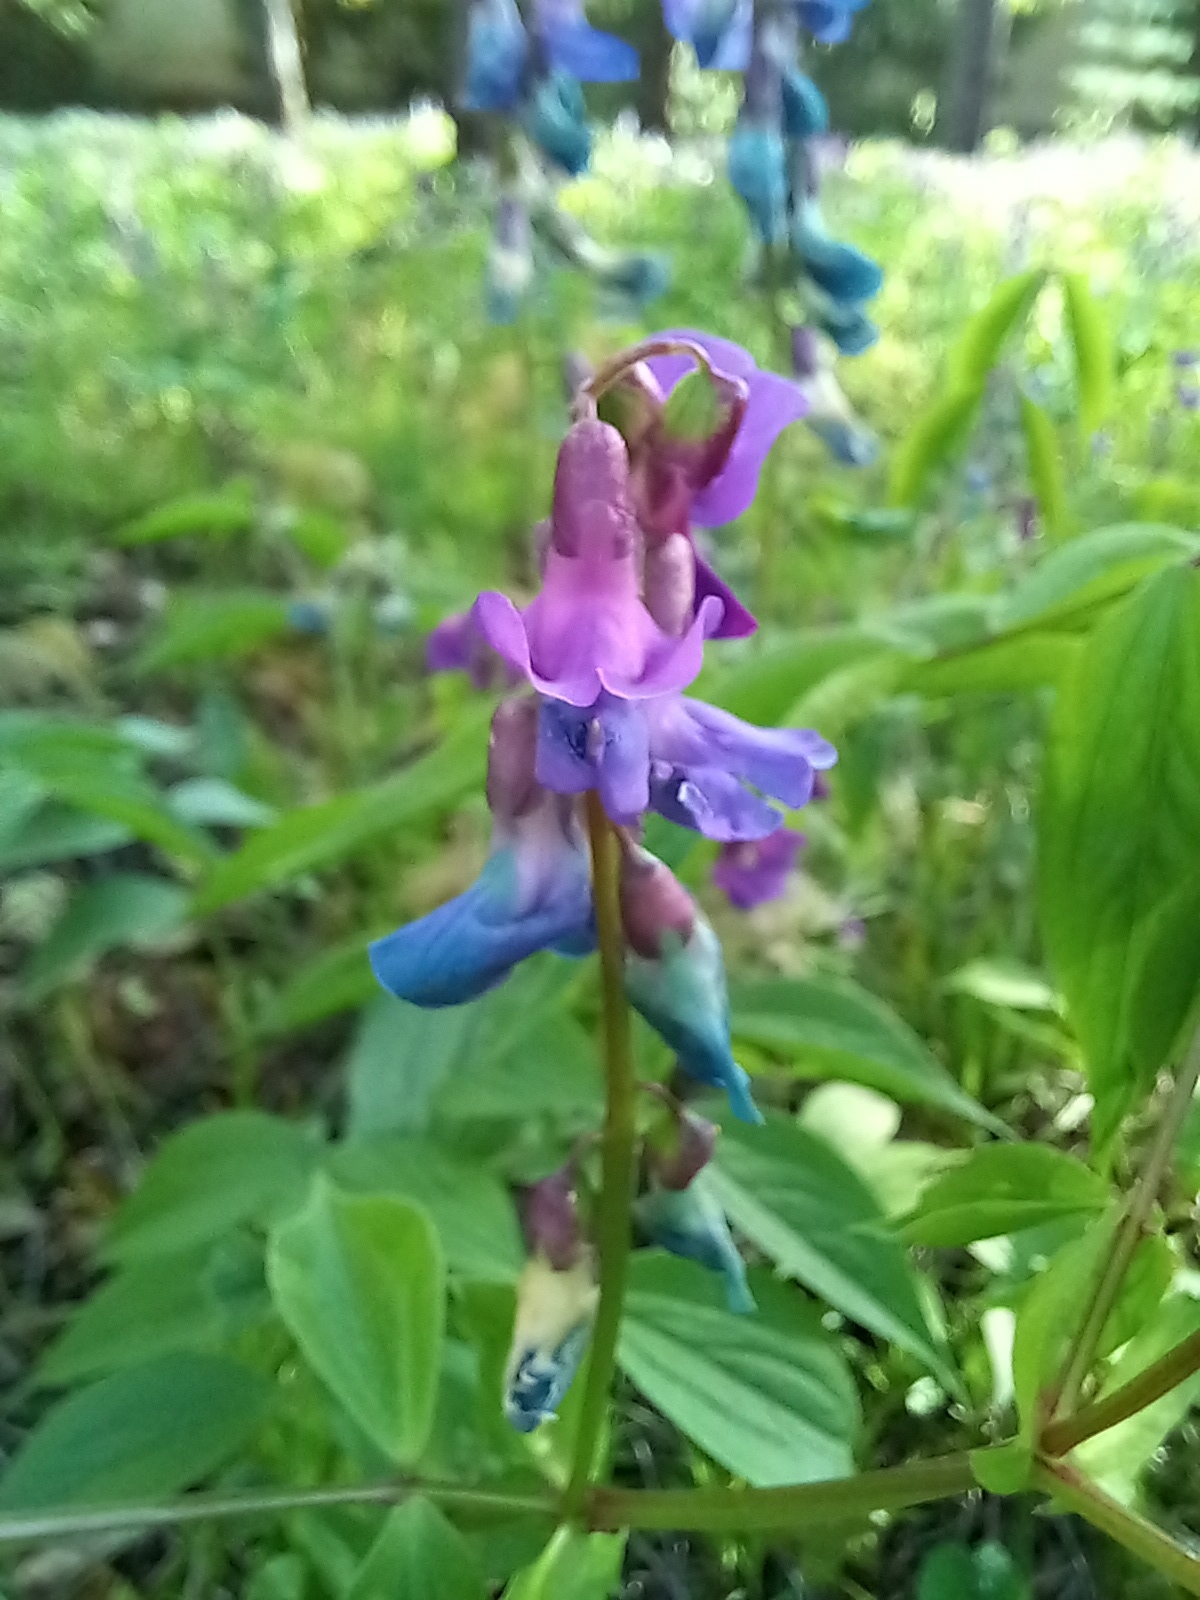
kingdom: Plantae
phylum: Tracheophyta
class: Magnoliopsida
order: Fabales
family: Fabaceae
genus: Lathyrus
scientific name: Lathyrus vernus
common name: Spring pea
